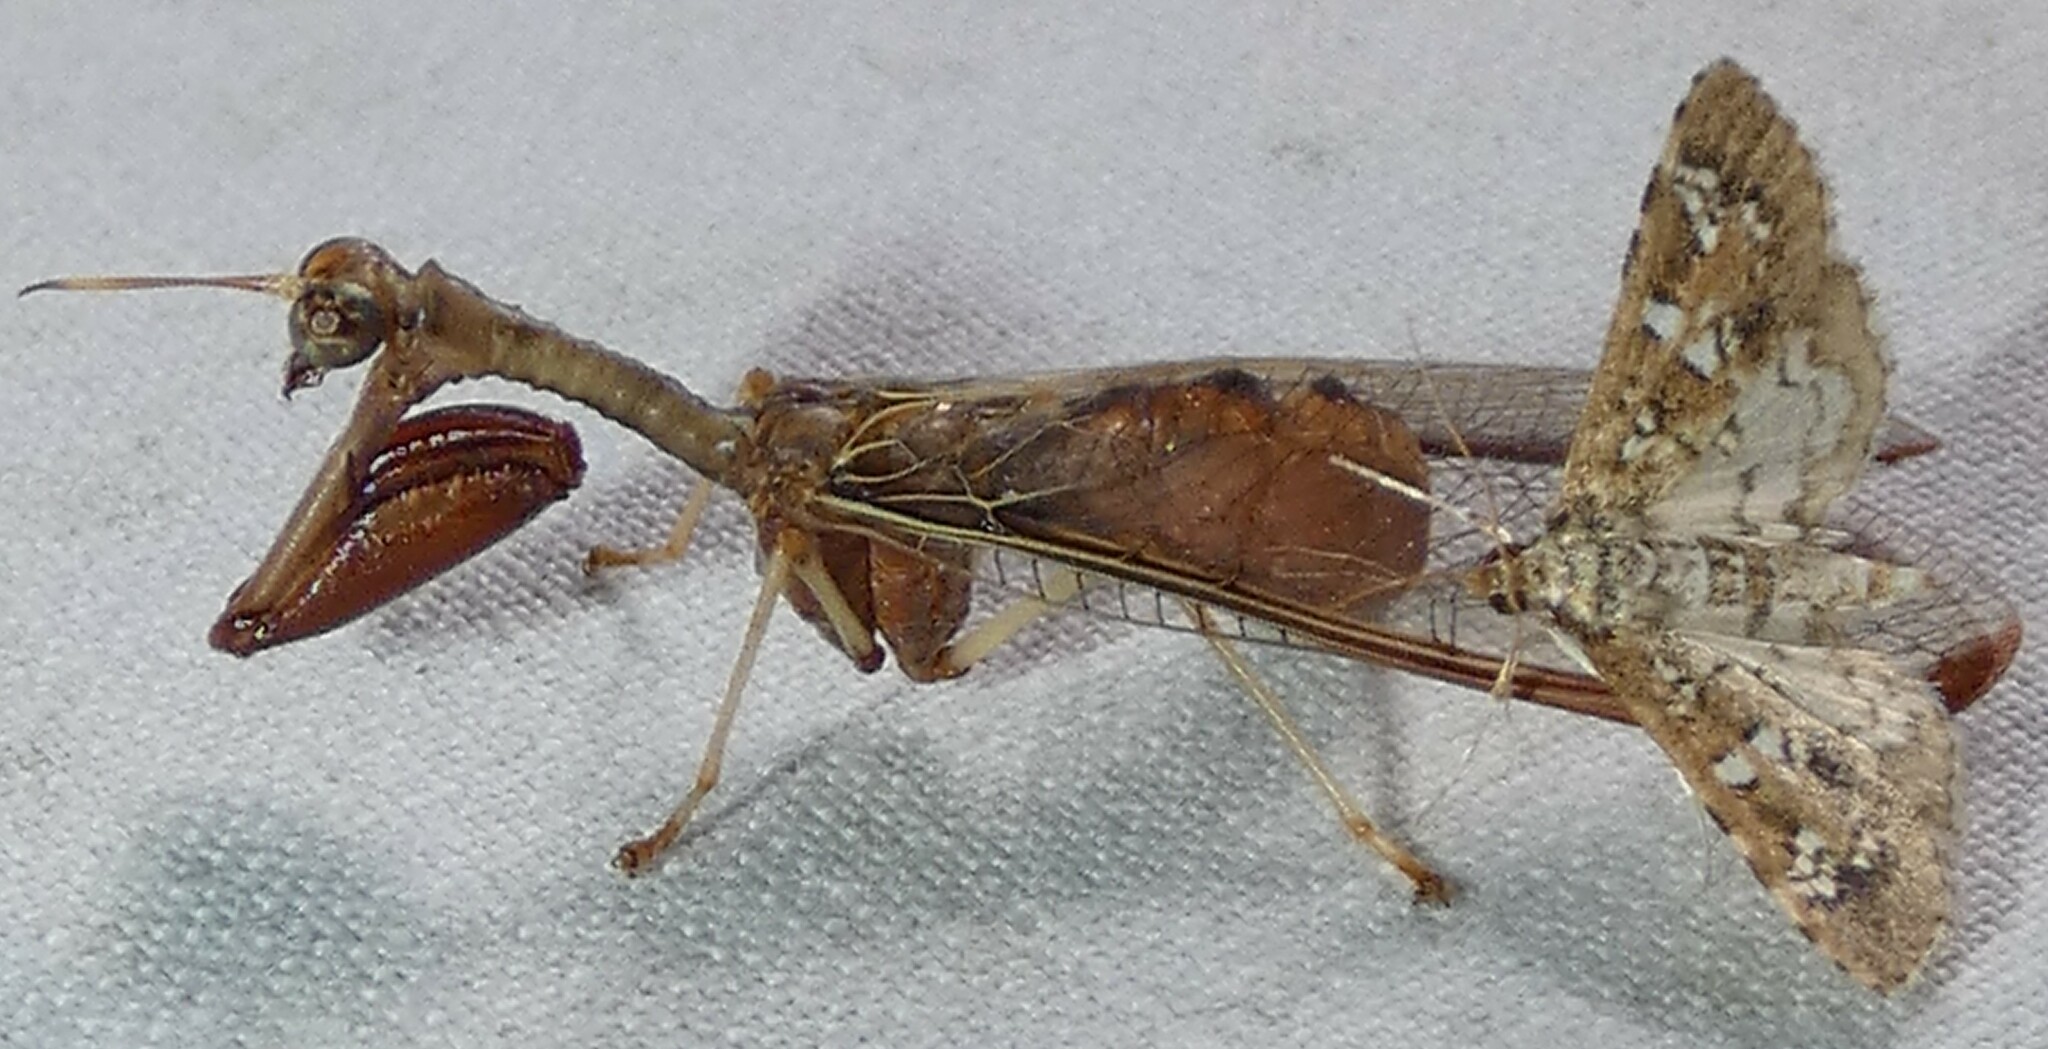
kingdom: Animalia
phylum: Arthropoda
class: Insecta
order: Neuroptera
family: Mantispidae
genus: Dicromantispa
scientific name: Dicromantispa interrupta
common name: Four-spotted mantidfly
